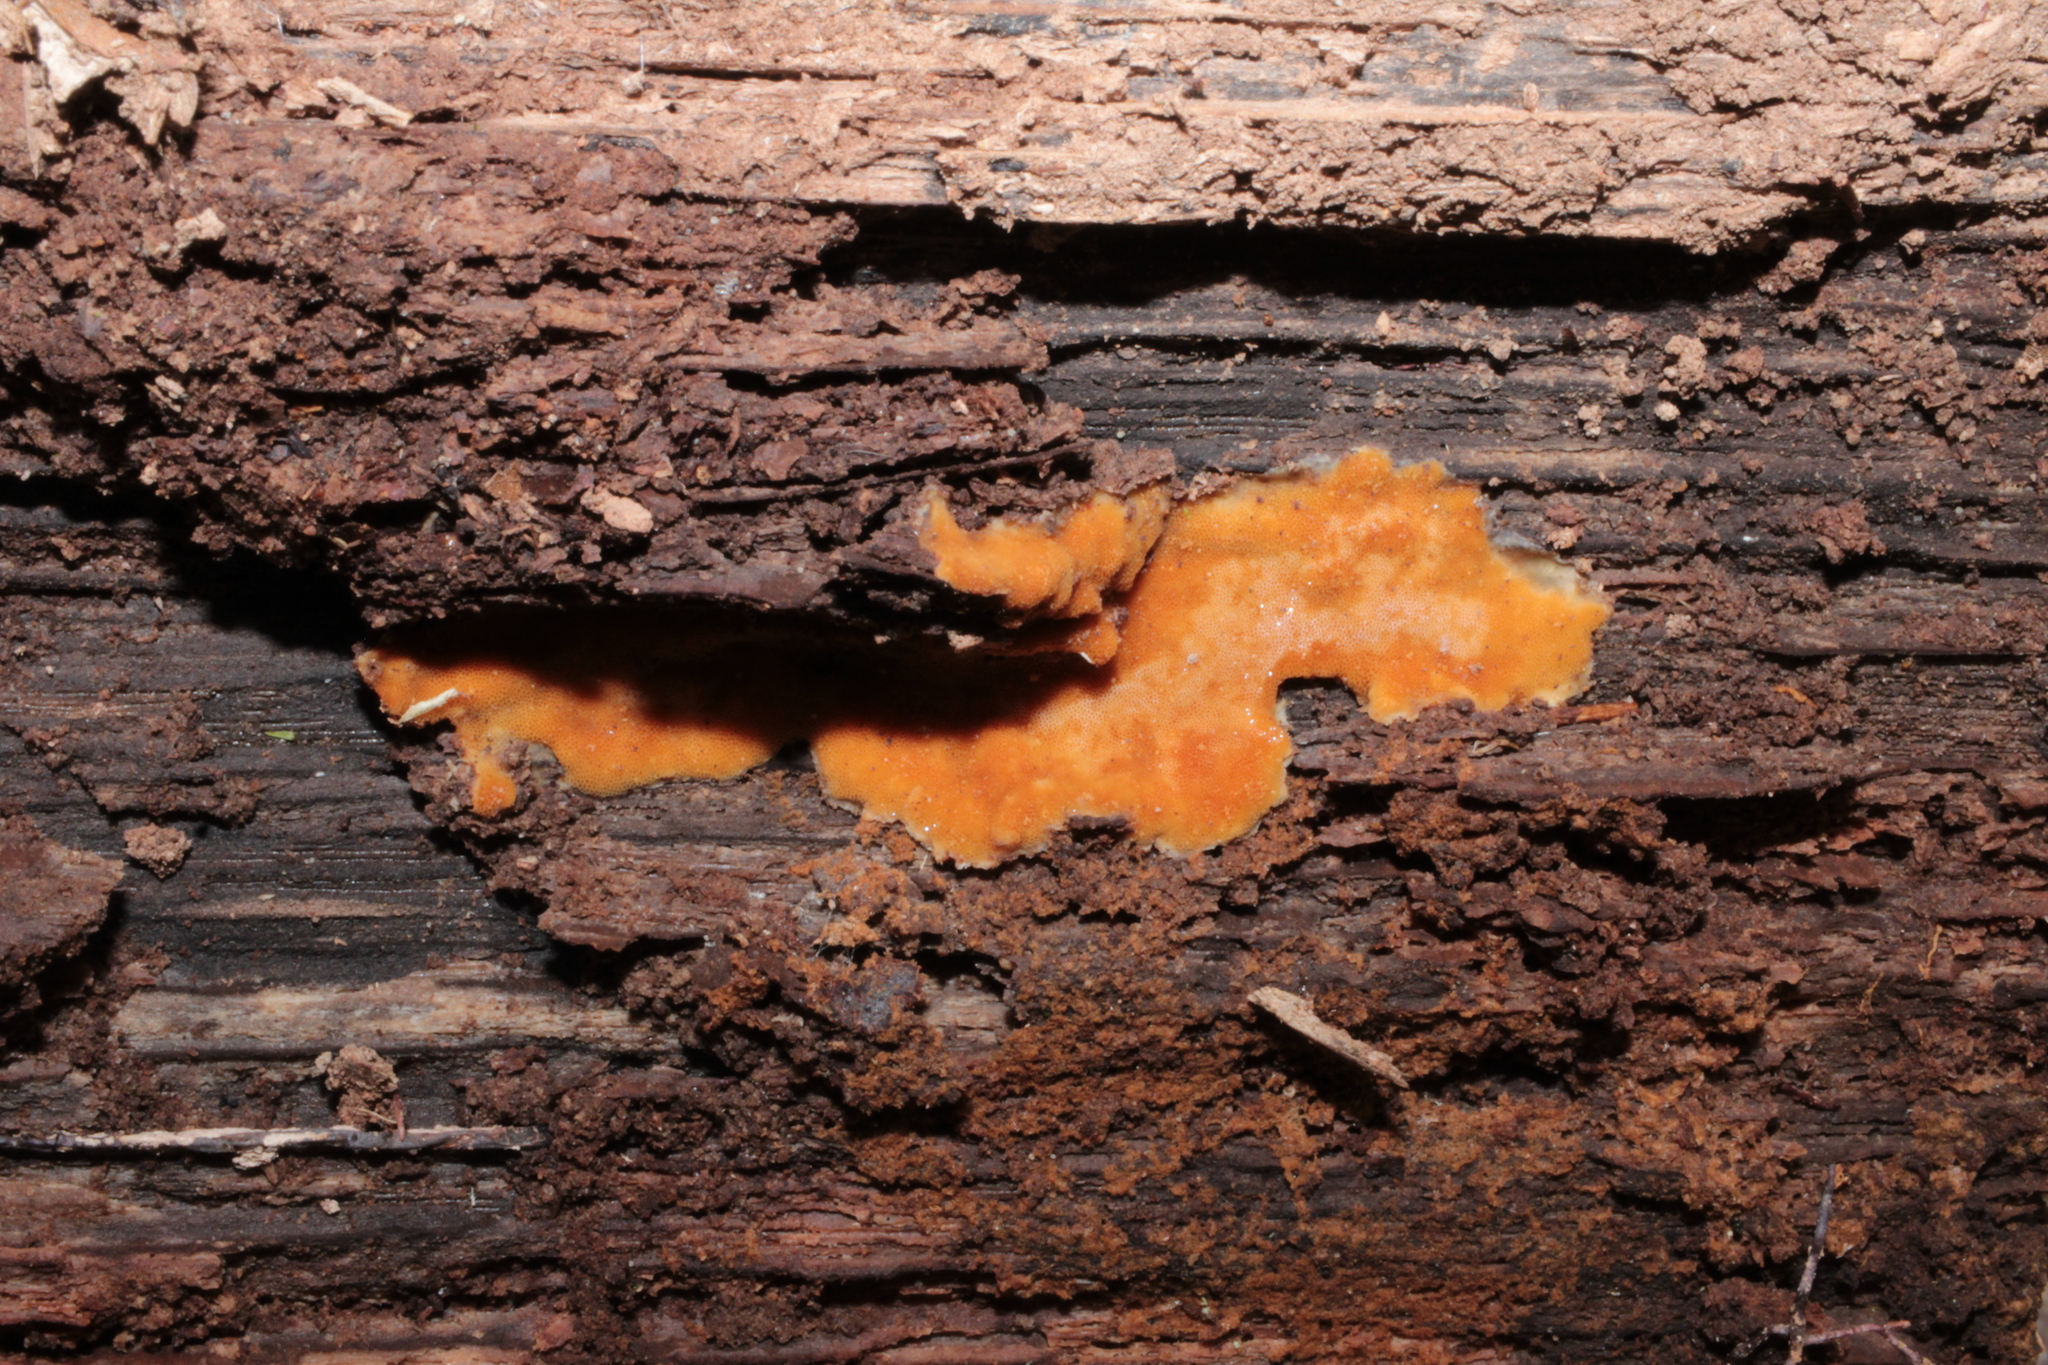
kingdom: Fungi
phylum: Basidiomycota
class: Agaricomycetes
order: Polyporales
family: Meripilaceae
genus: Rigidoporus
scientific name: Rigidoporus crocatus
